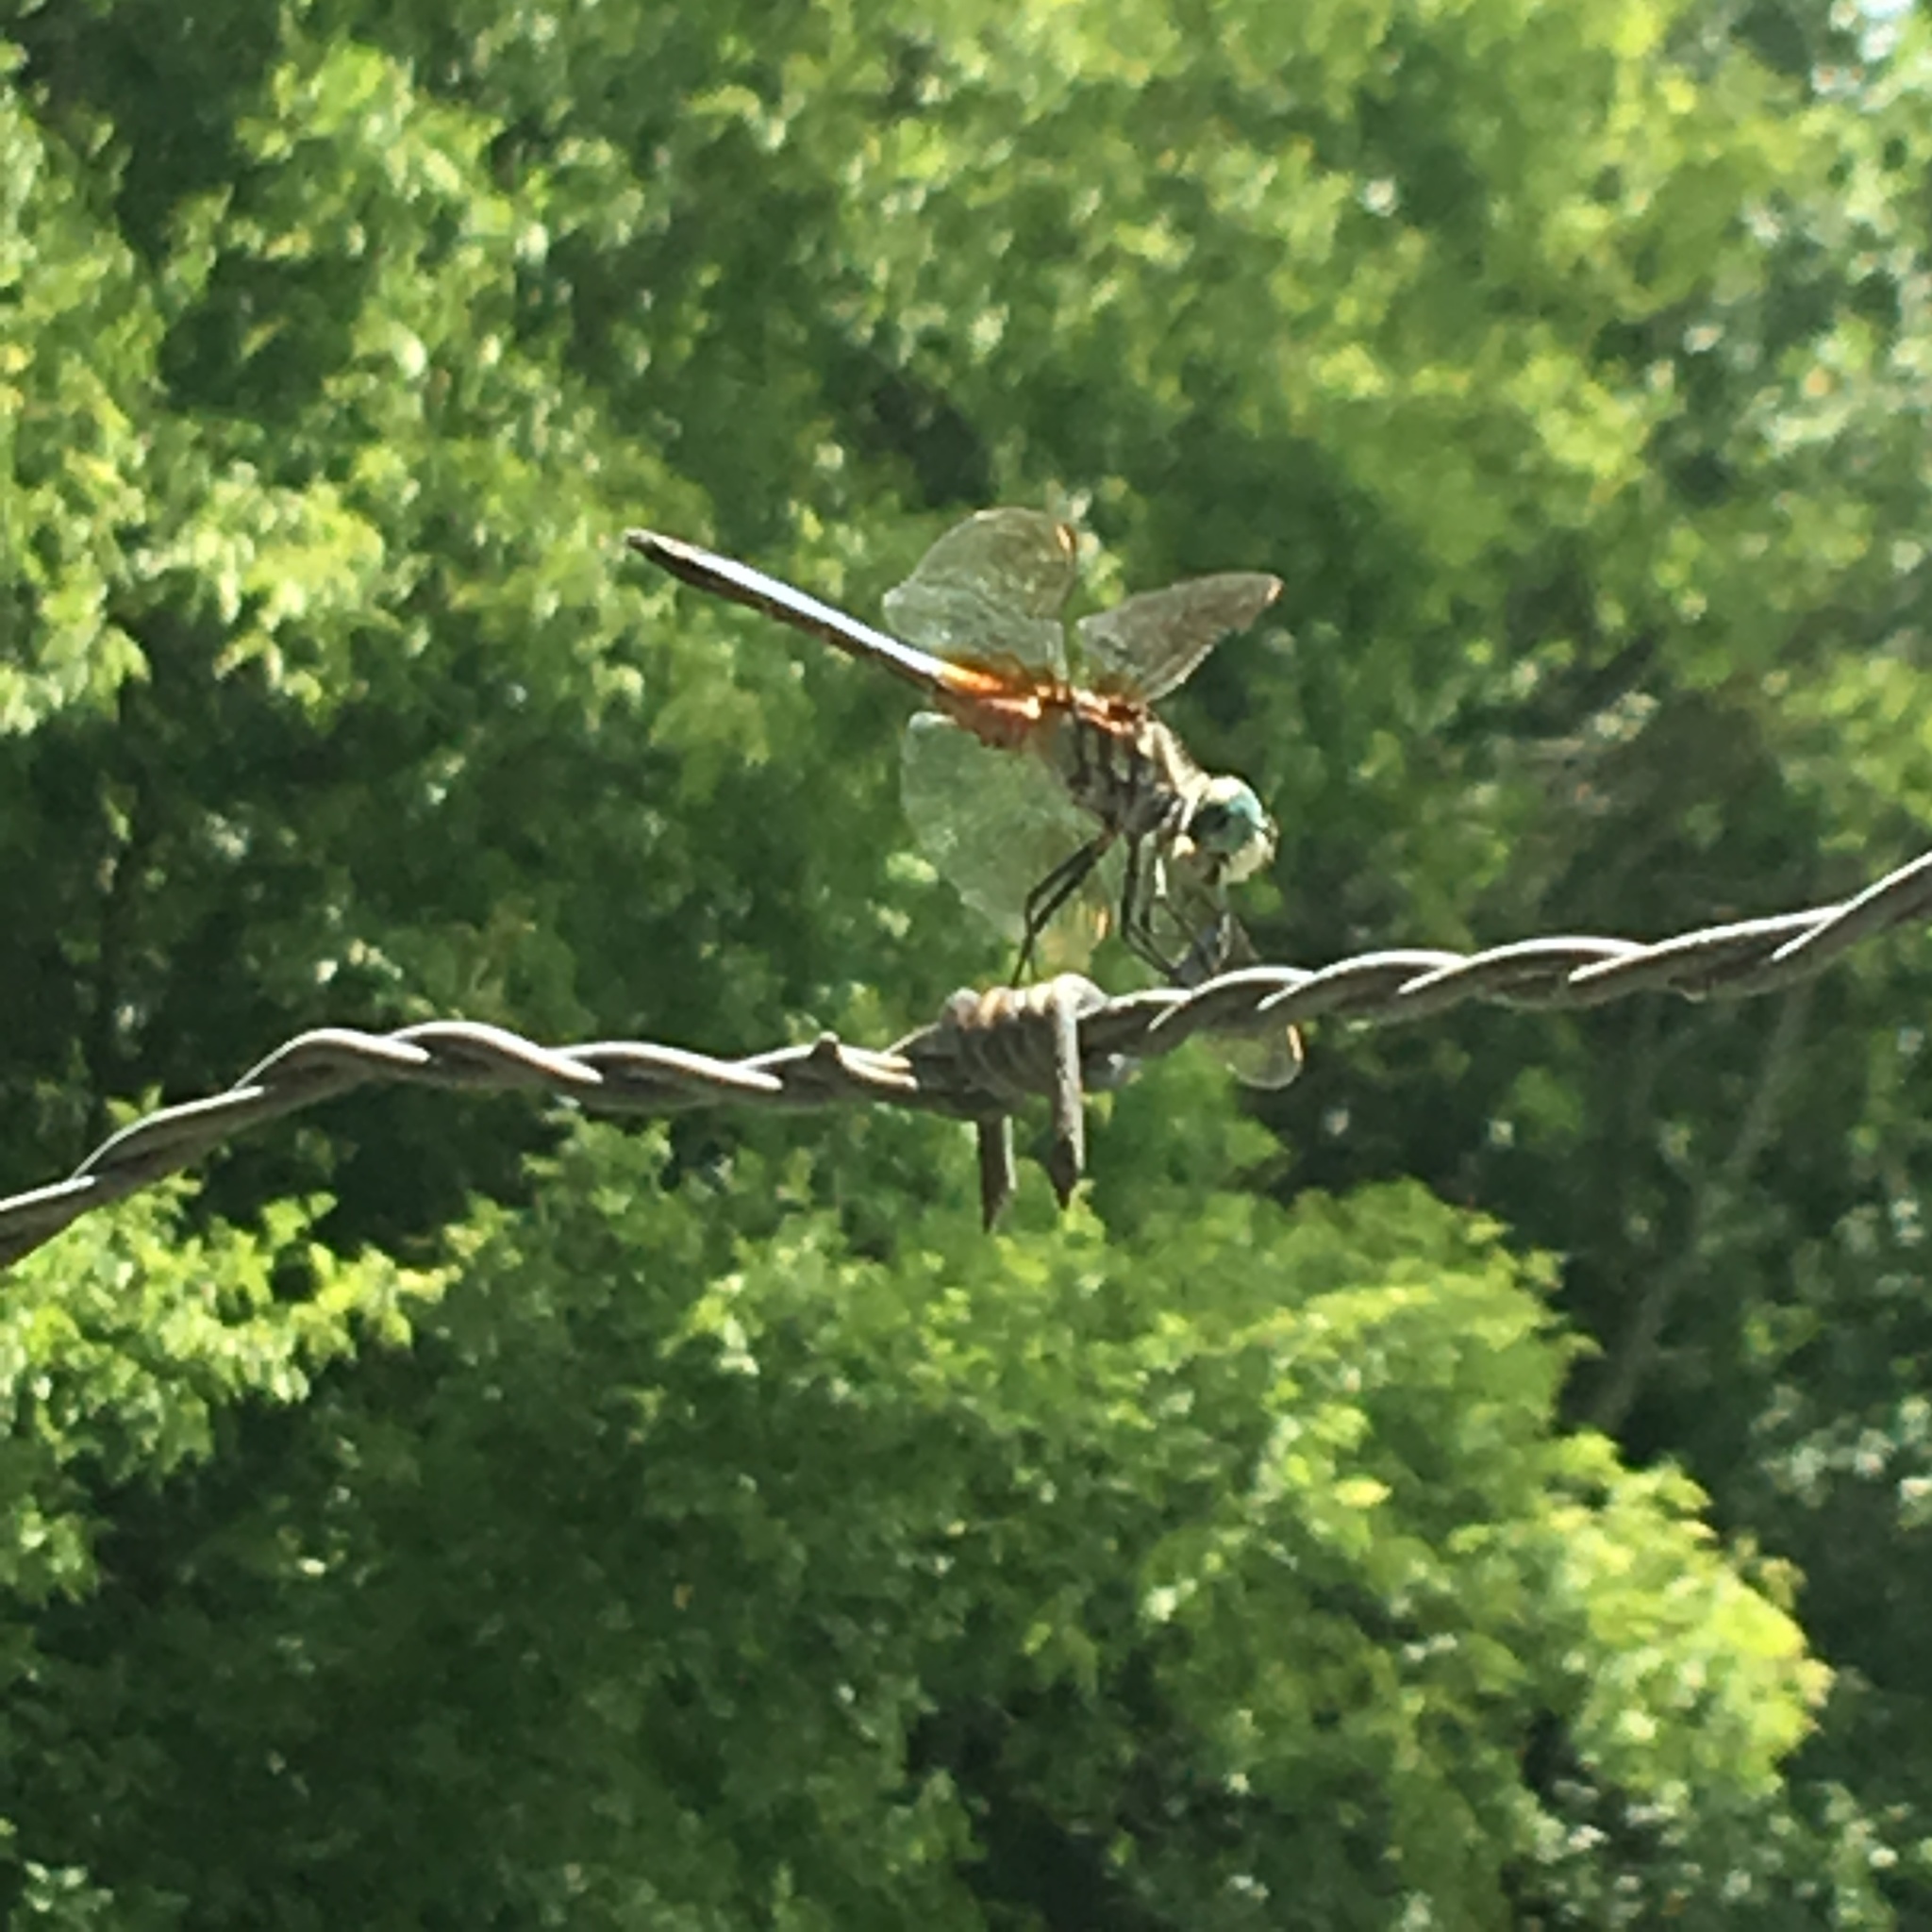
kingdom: Animalia
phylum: Arthropoda
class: Insecta
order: Odonata
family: Libellulidae
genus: Pachydiplax
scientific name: Pachydiplax longipennis
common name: Blue dasher
